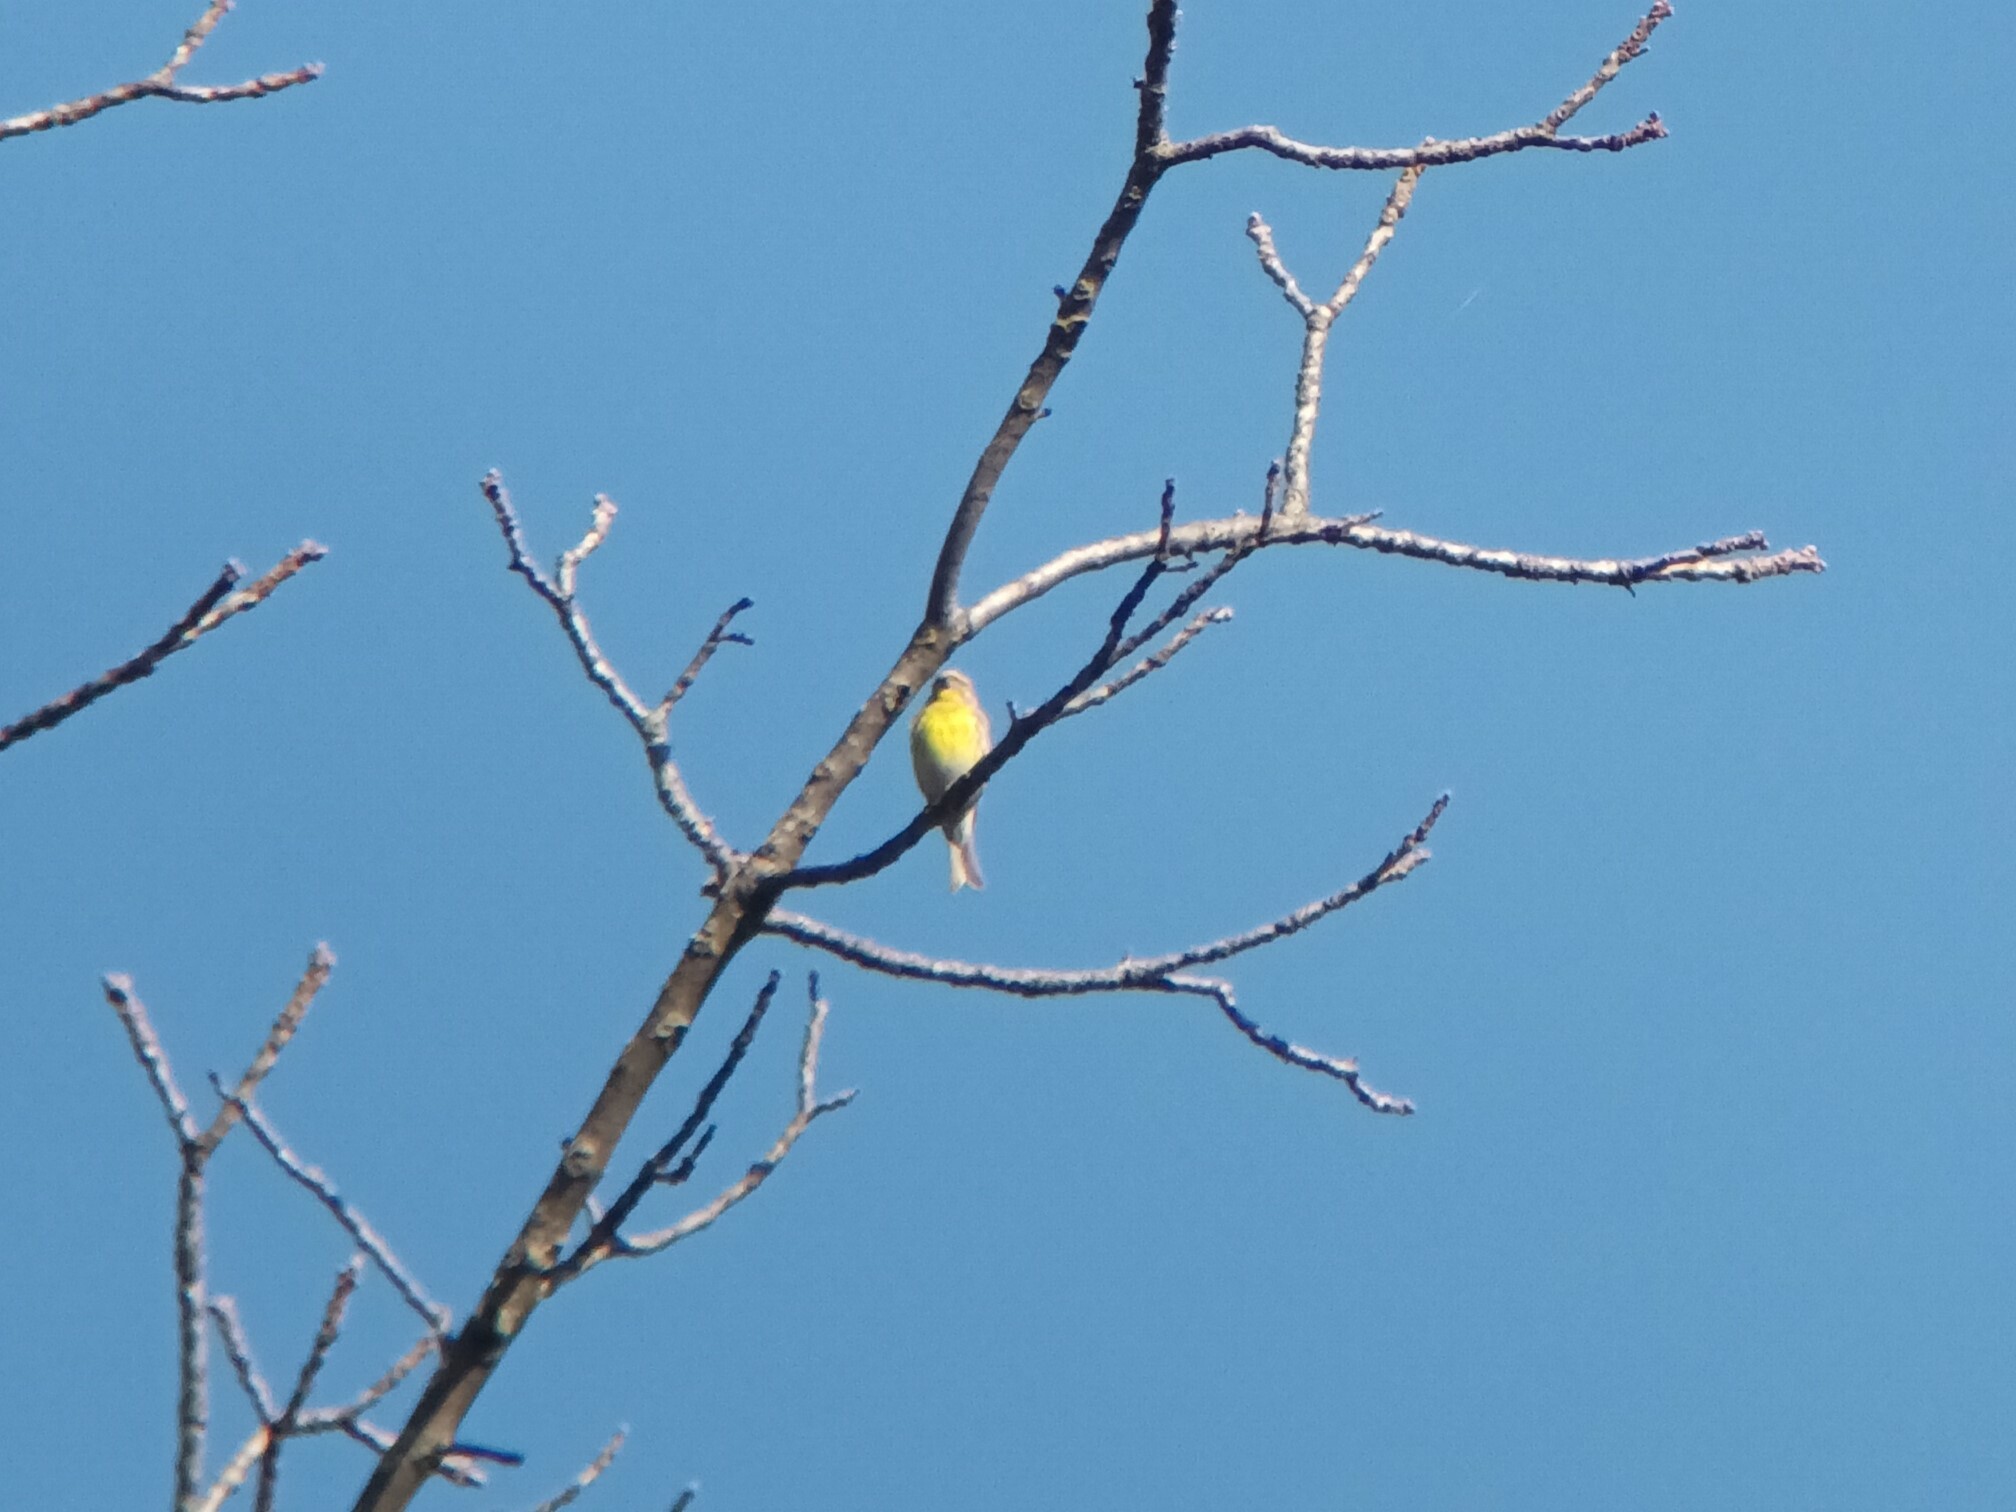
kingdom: Animalia
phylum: Chordata
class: Aves
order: Passeriformes
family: Fringillidae
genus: Serinus
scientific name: Serinus serinus
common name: European serin
